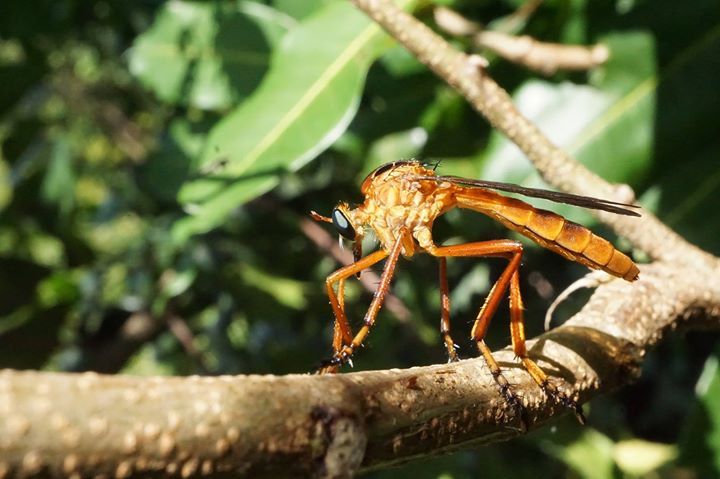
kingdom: Animalia
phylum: Arthropoda
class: Insecta
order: Diptera
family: Asilidae
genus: Diogmites
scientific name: Diogmites neoternatus
